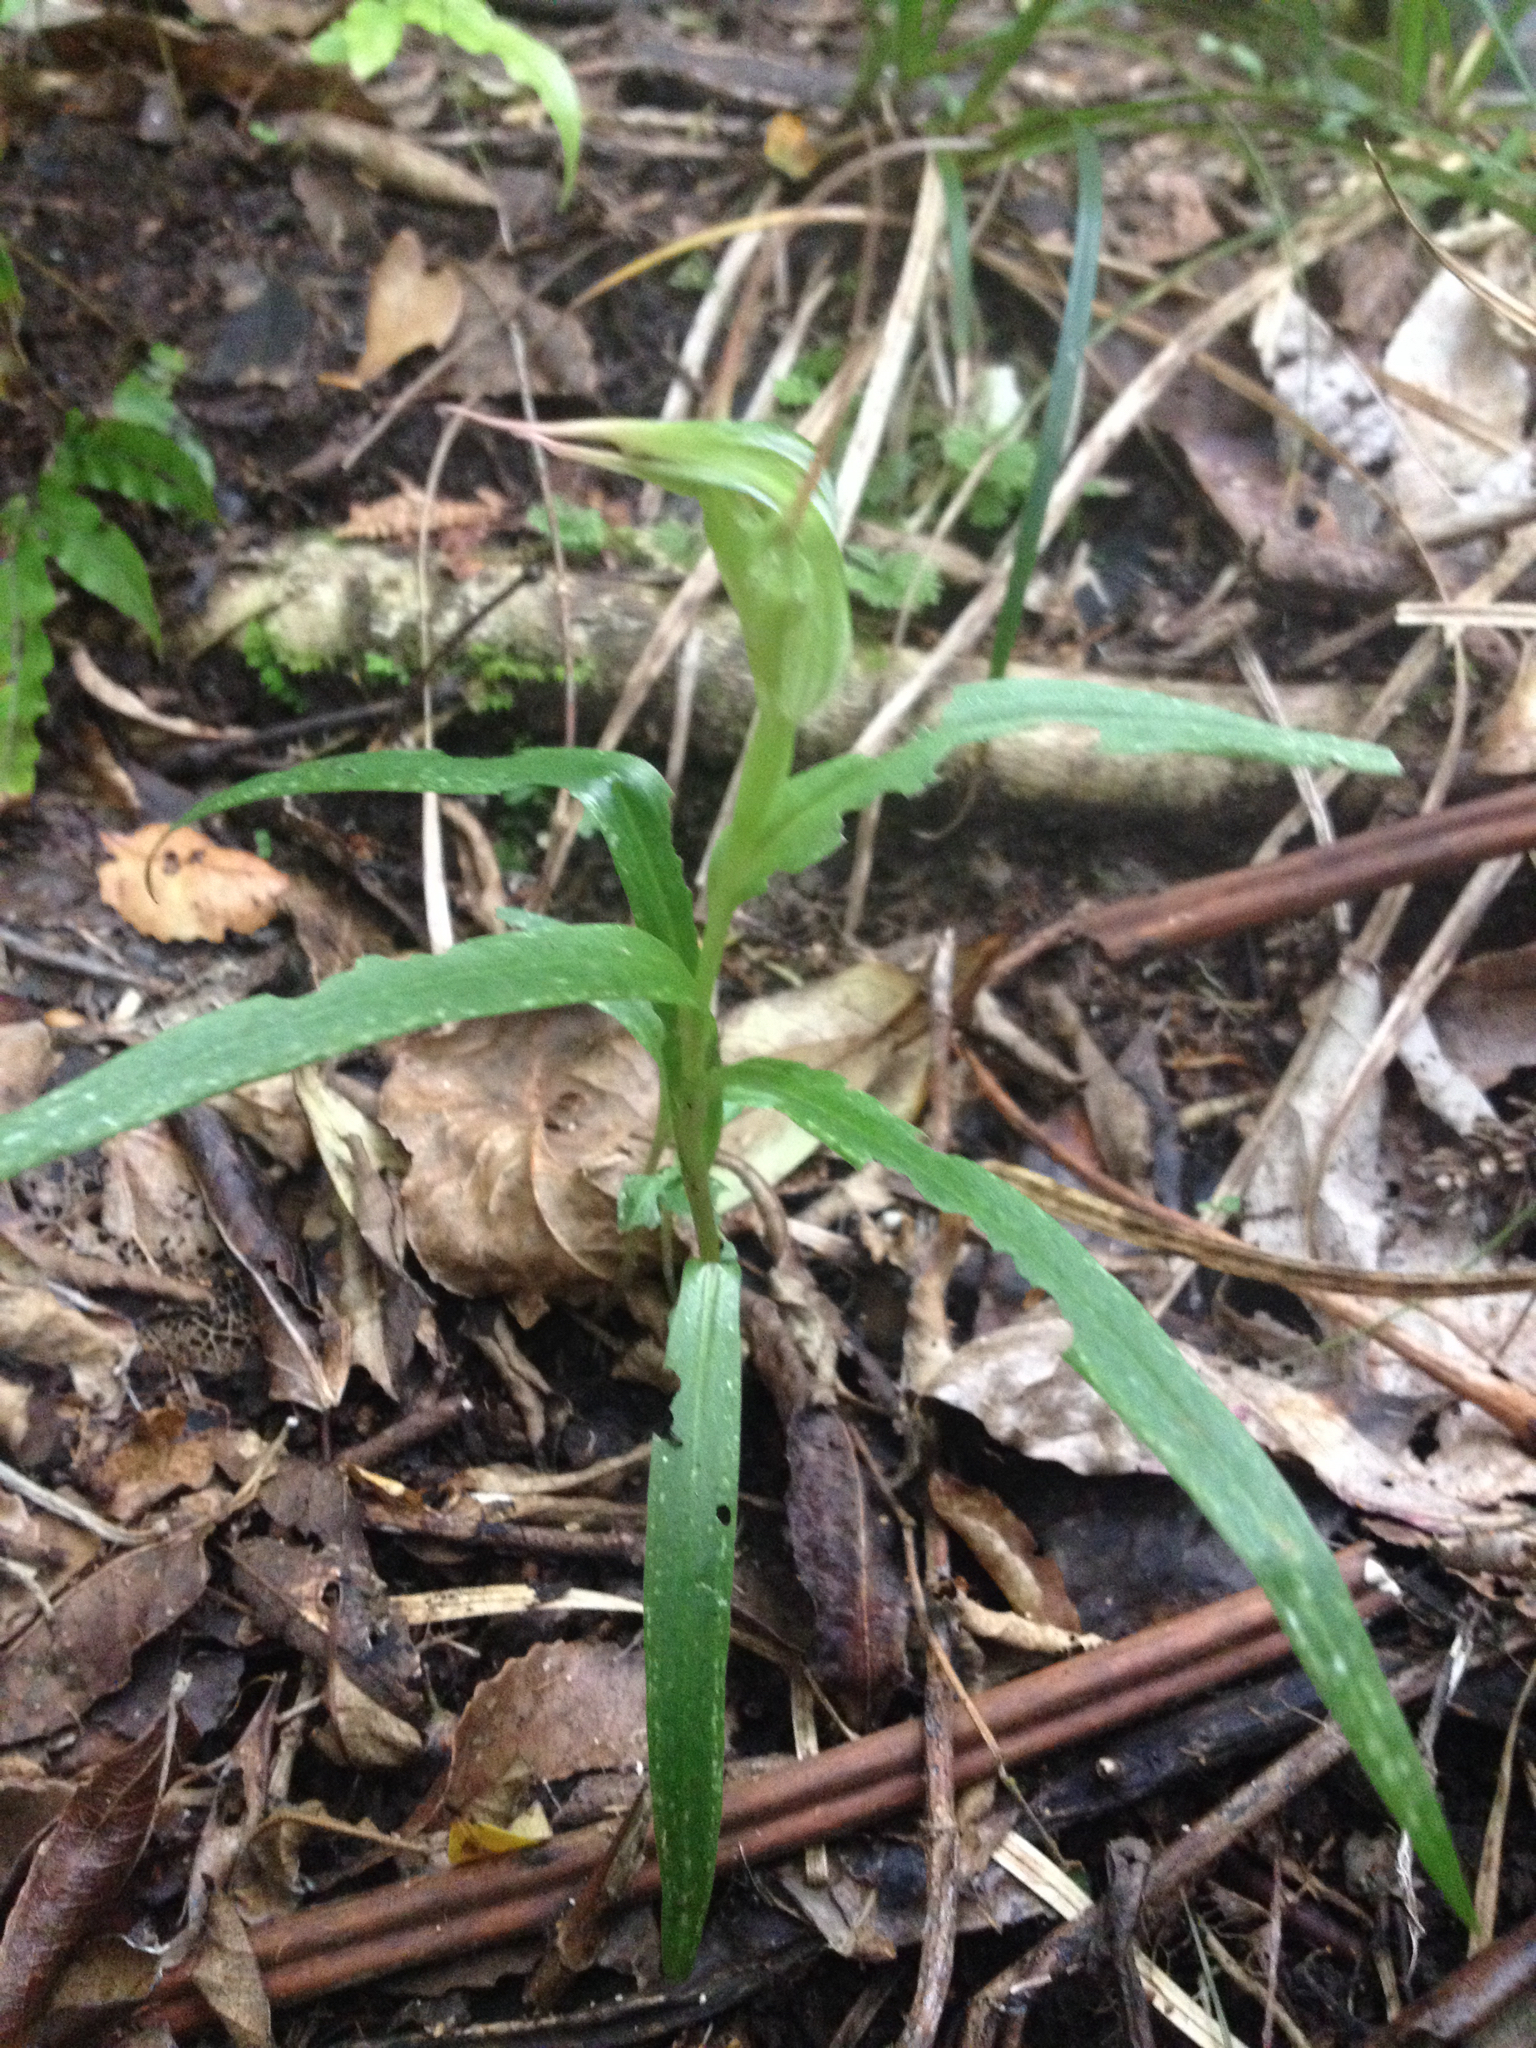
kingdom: Plantae
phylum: Tracheophyta
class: Liliopsida
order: Asparagales
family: Orchidaceae
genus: Pterostylis
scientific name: Pterostylis banksii
